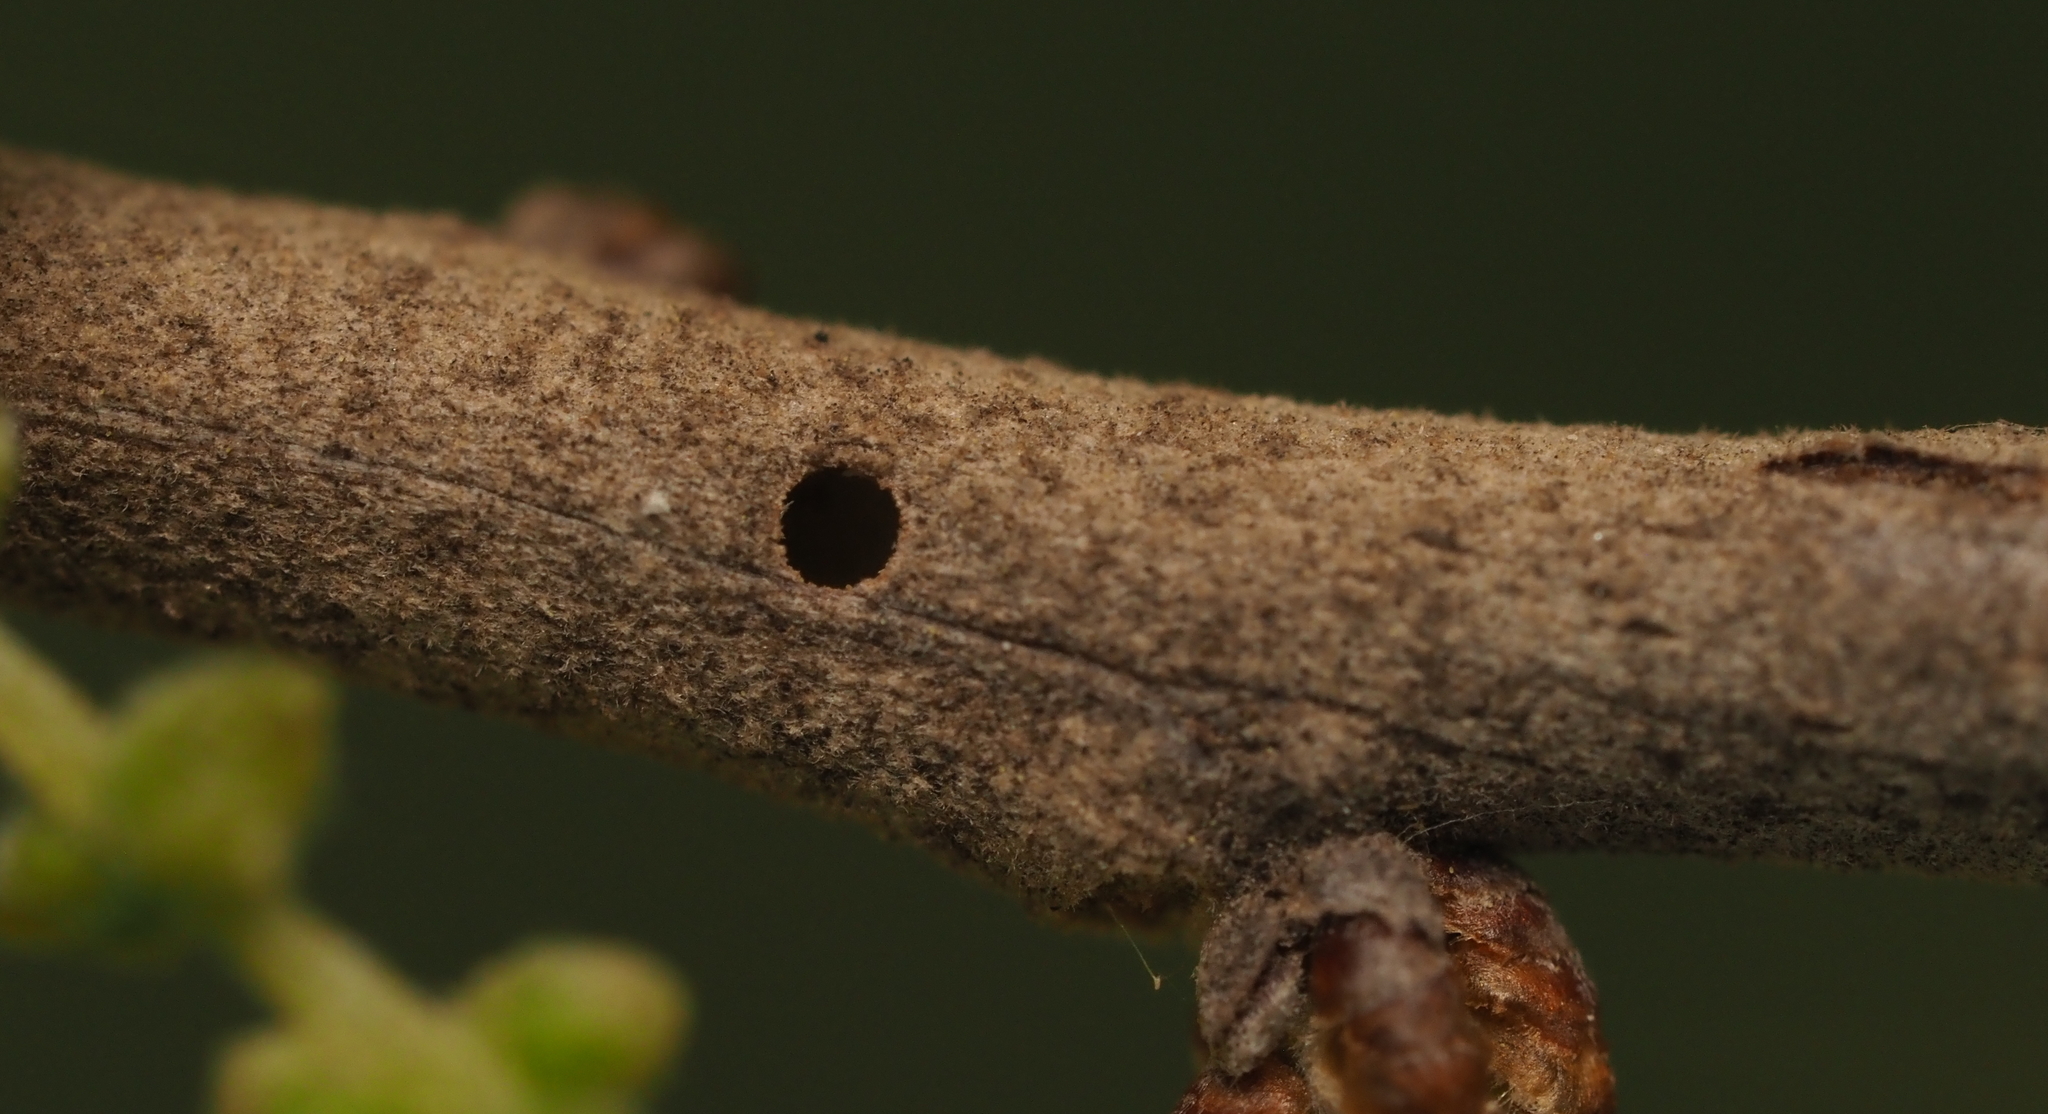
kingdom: Animalia
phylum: Arthropoda
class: Insecta
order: Hymenoptera
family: Cynipidae
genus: Neuroterus
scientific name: Neuroterus valhalla
